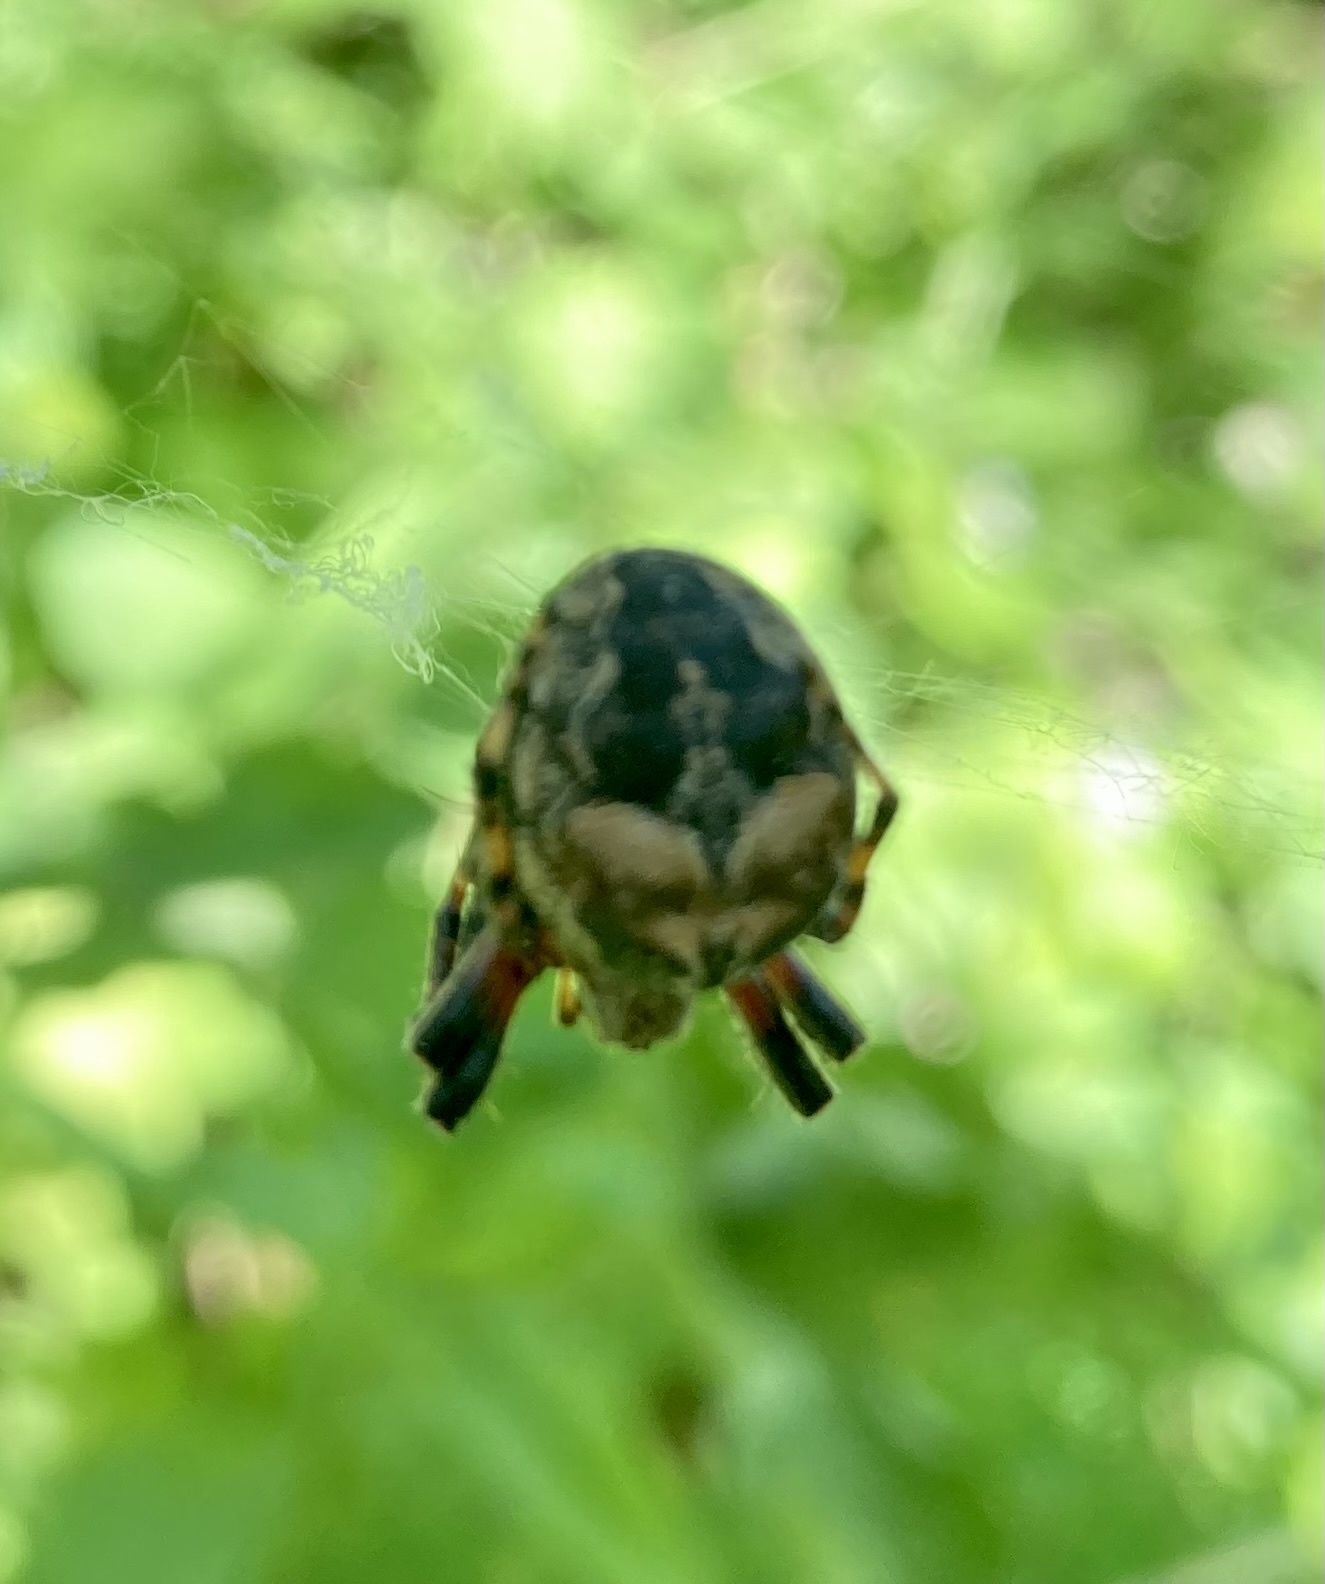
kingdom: Animalia
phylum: Arthropoda
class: Arachnida
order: Araneae
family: Araneidae
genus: Larinioides
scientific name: Larinioides patagiatus
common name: Ornamental orbweaver
